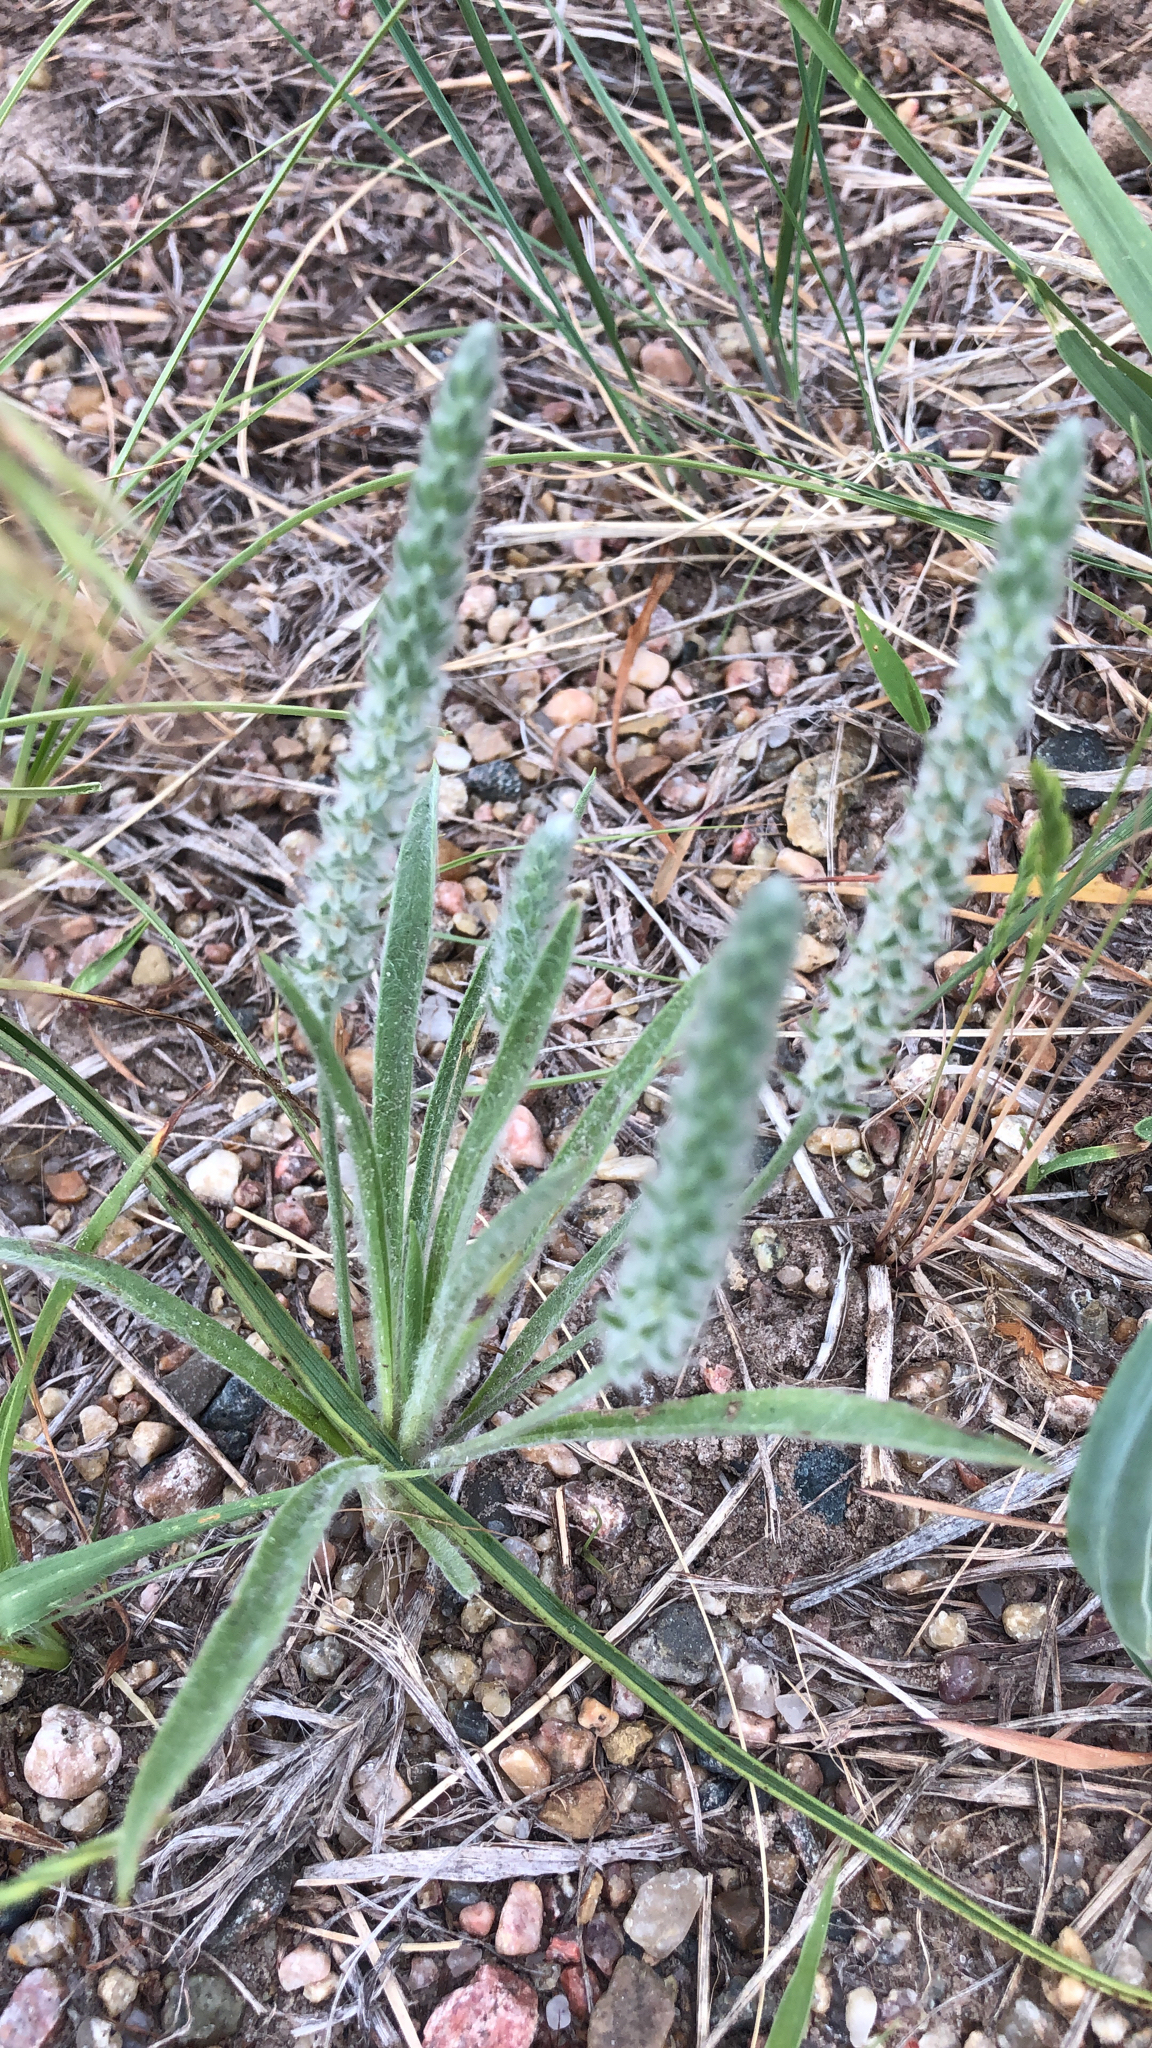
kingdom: Plantae
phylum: Tracheophyta
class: Magnoliopsida
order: Lamiales
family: Plantaginaceae
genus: Plantago
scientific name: Plantago patagonica
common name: Patagonia indian-wheat
